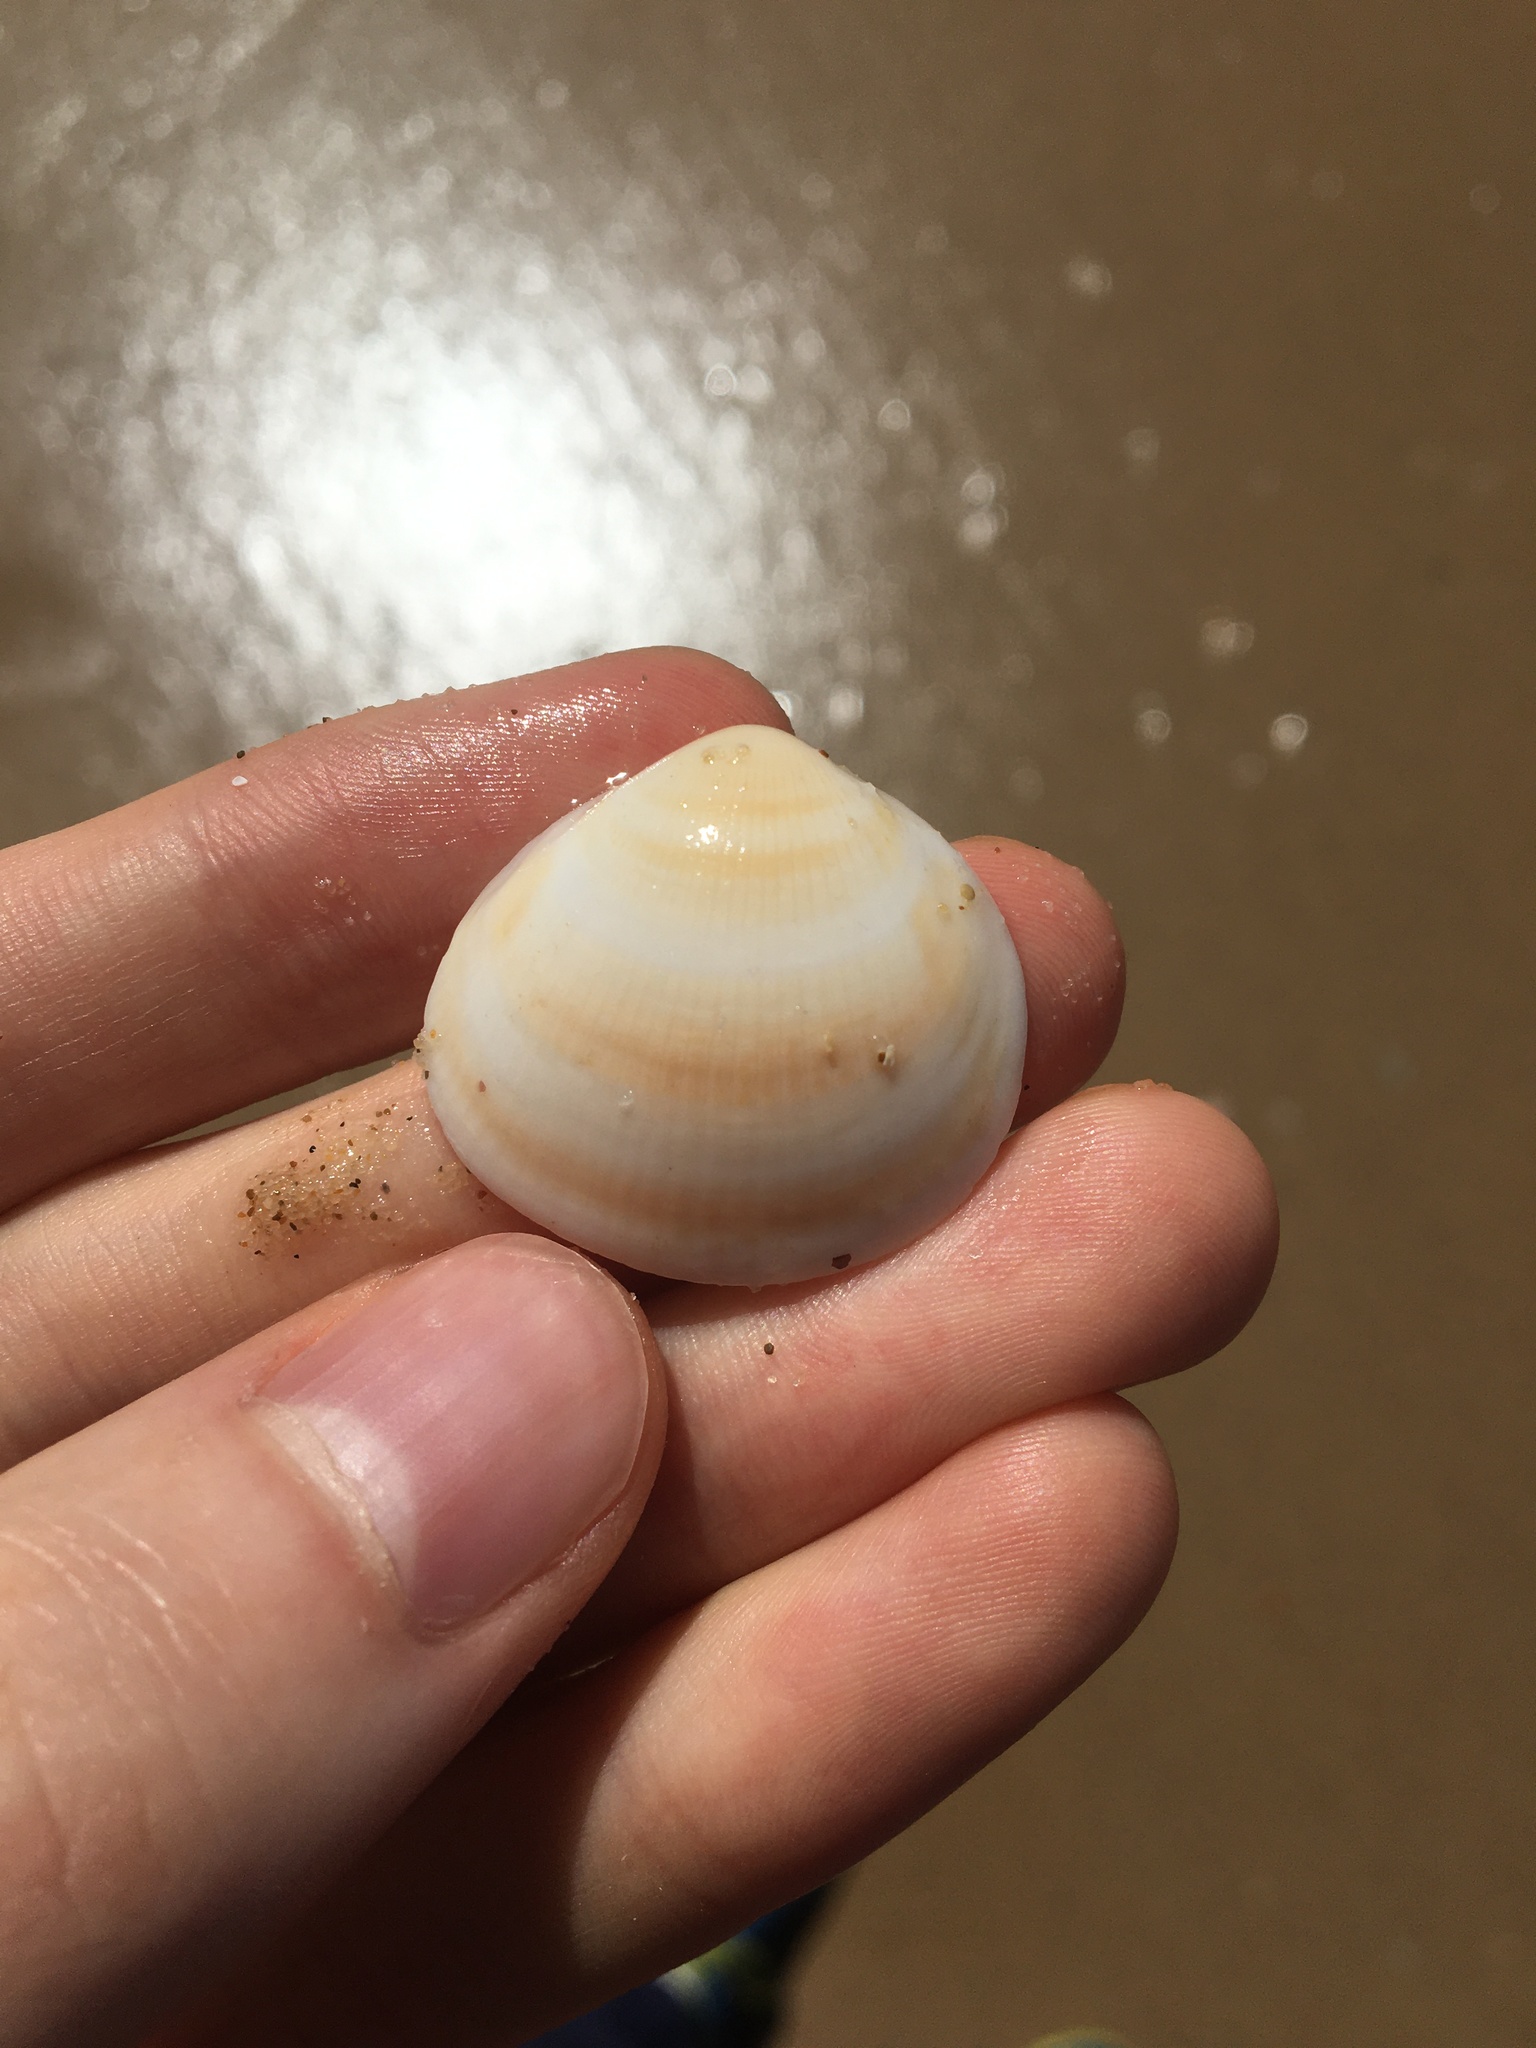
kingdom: Animalia
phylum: Mollusca
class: Bivalvia
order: Arcida
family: Glycymerididae
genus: Glycymeris
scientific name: Glycymeris grayana
